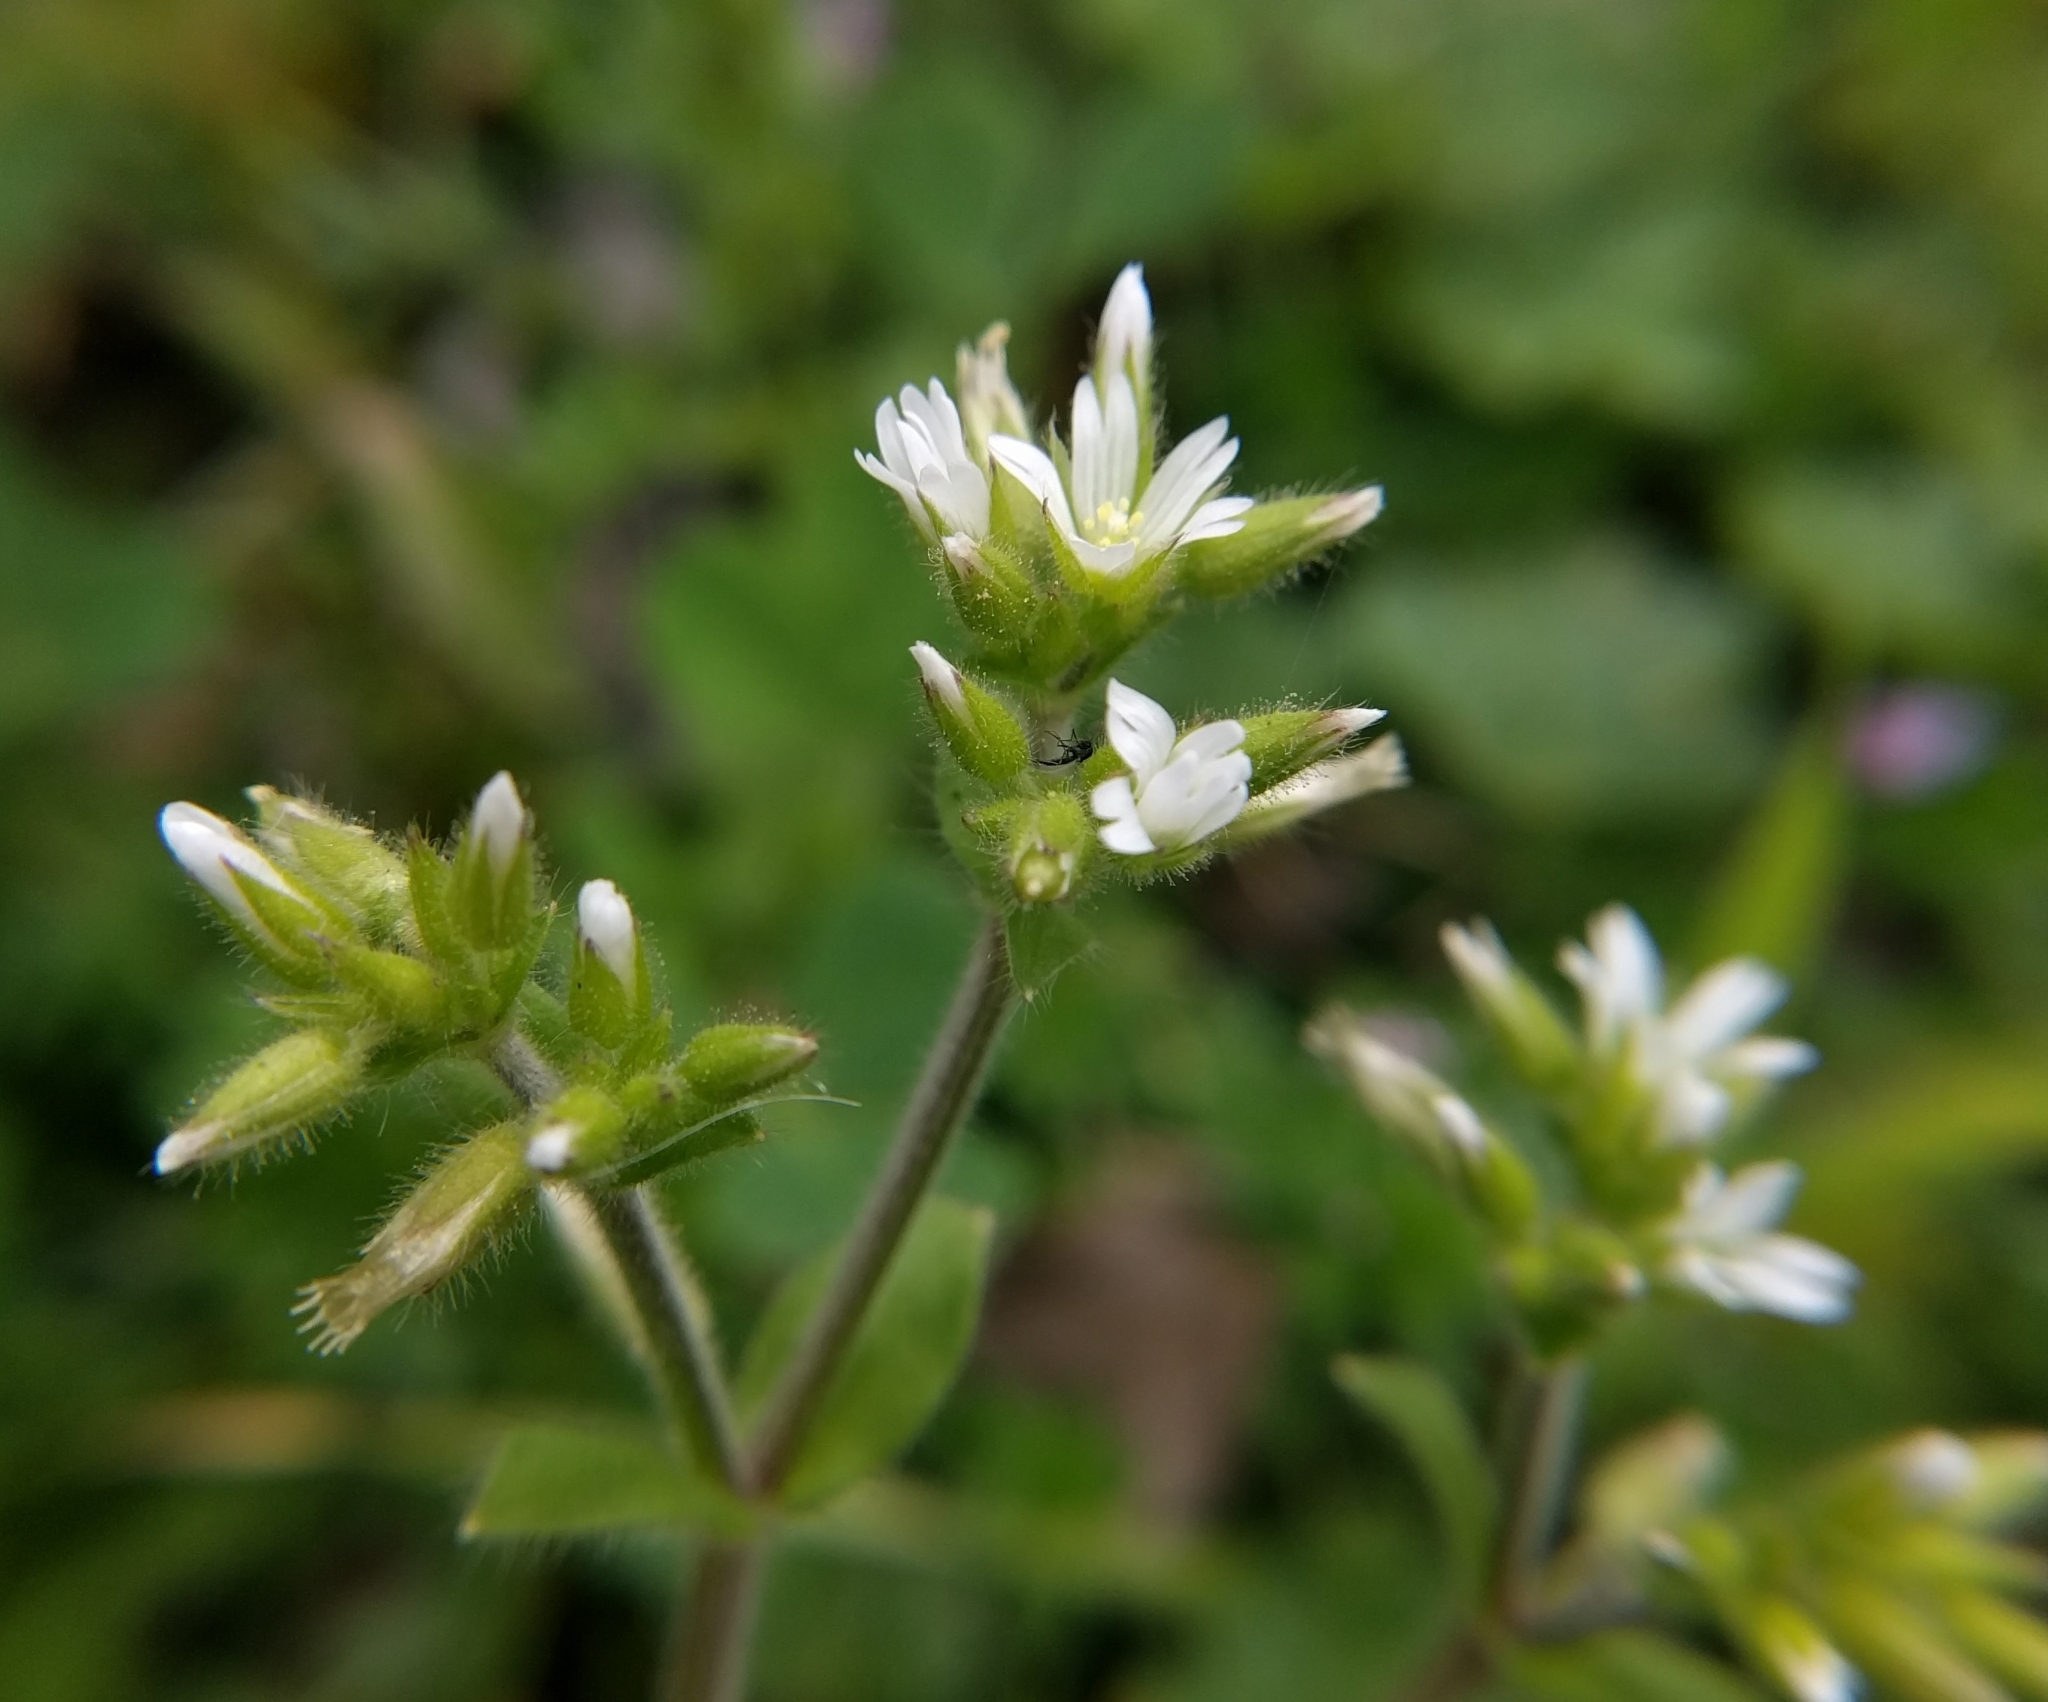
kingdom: Plantae
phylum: Tracheophyta
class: Magnoliopsida
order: Caryophyllales
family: Caryophyllaceae
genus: Cerastium
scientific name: Cerastium glomeratum
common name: Sticky chickweed
